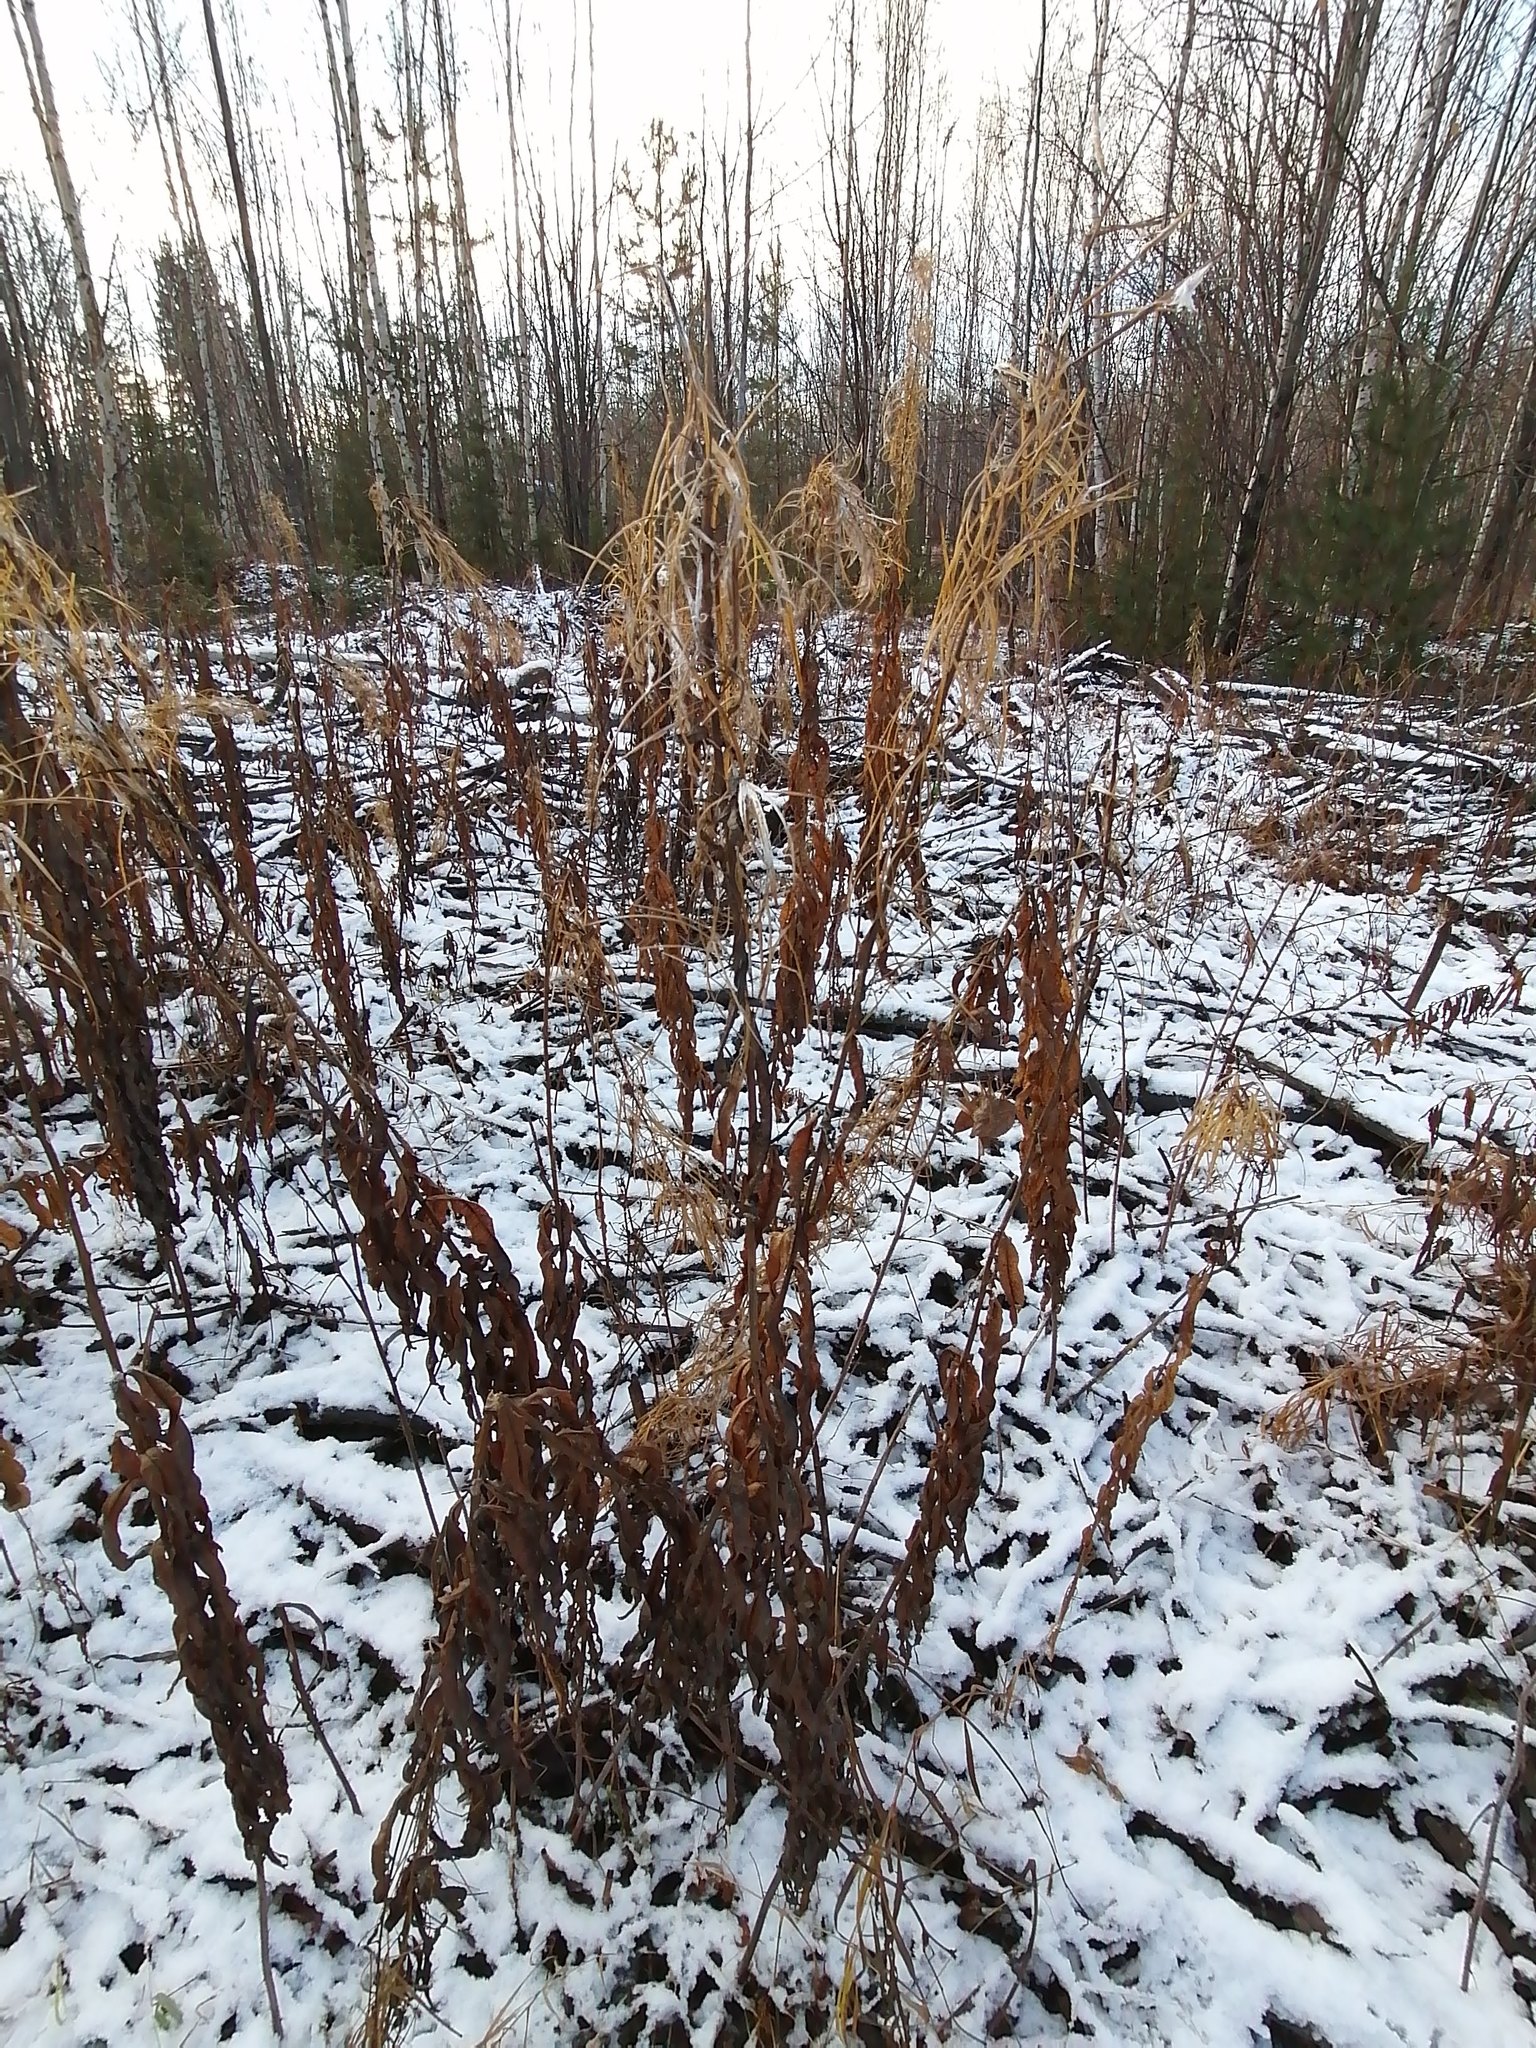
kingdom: Plantae
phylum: Tracheophyta
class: Magnoliopsida
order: Myrtales
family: Onagraceae
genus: Chamaenerion
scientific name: Chamaenerion angustifolium
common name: Fireweed
